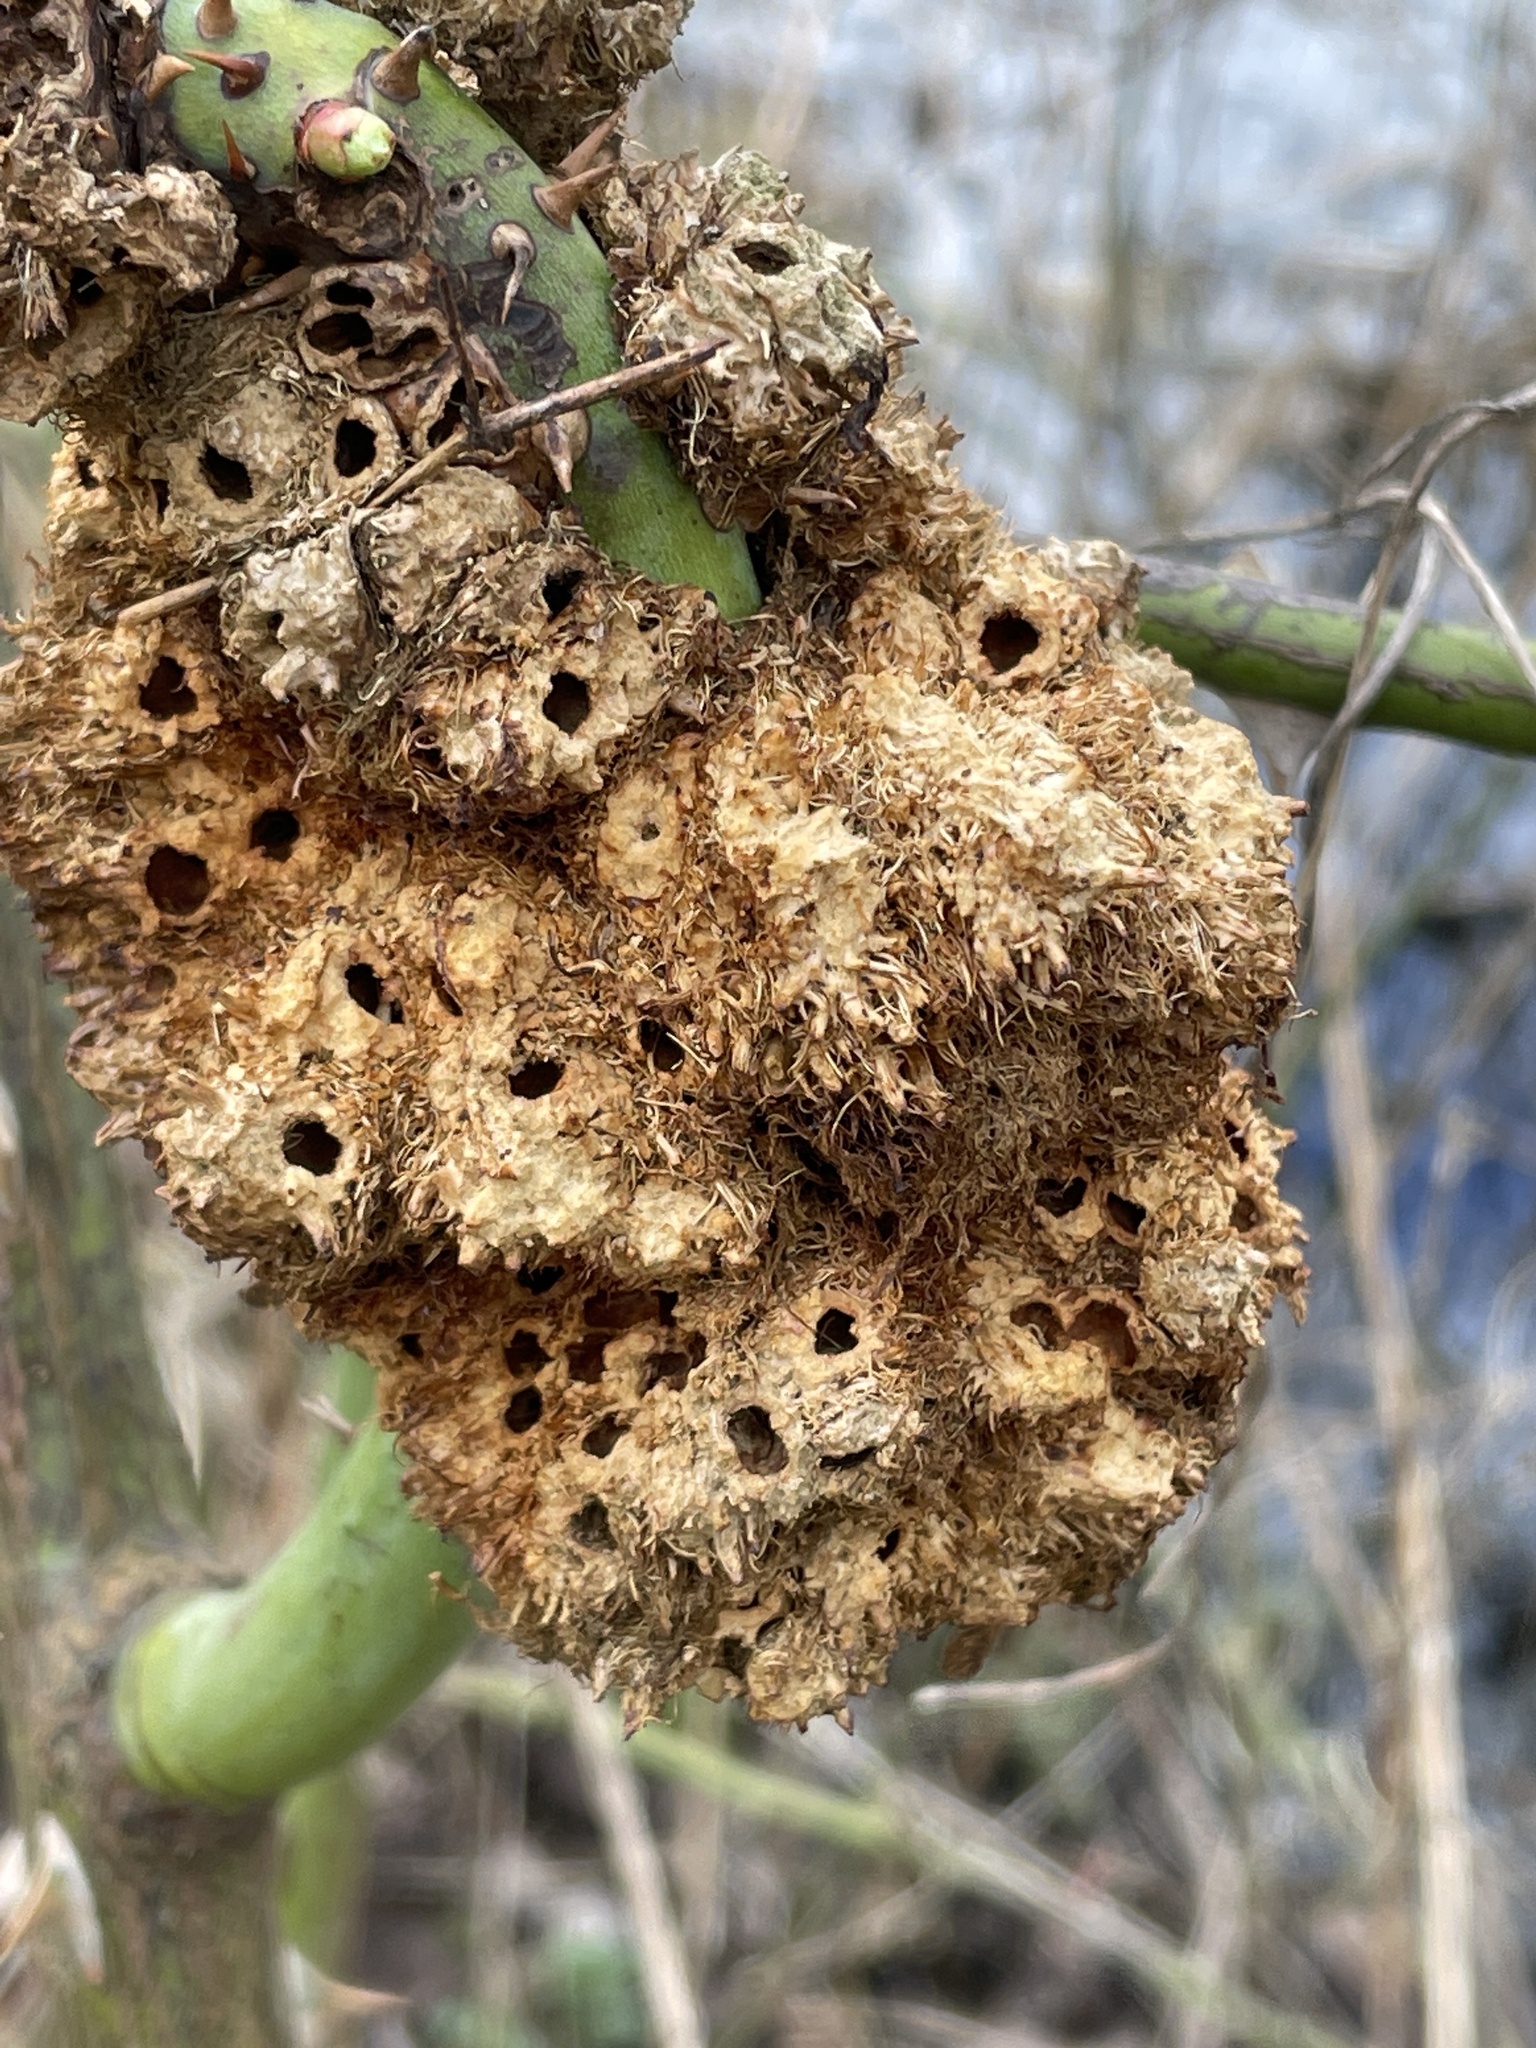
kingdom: Animalia
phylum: Arthropoda
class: Insecta
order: Hymenoptera
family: Cynipidae
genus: Diplolepis
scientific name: Diplolepis rosae
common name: Bedeguar gall
